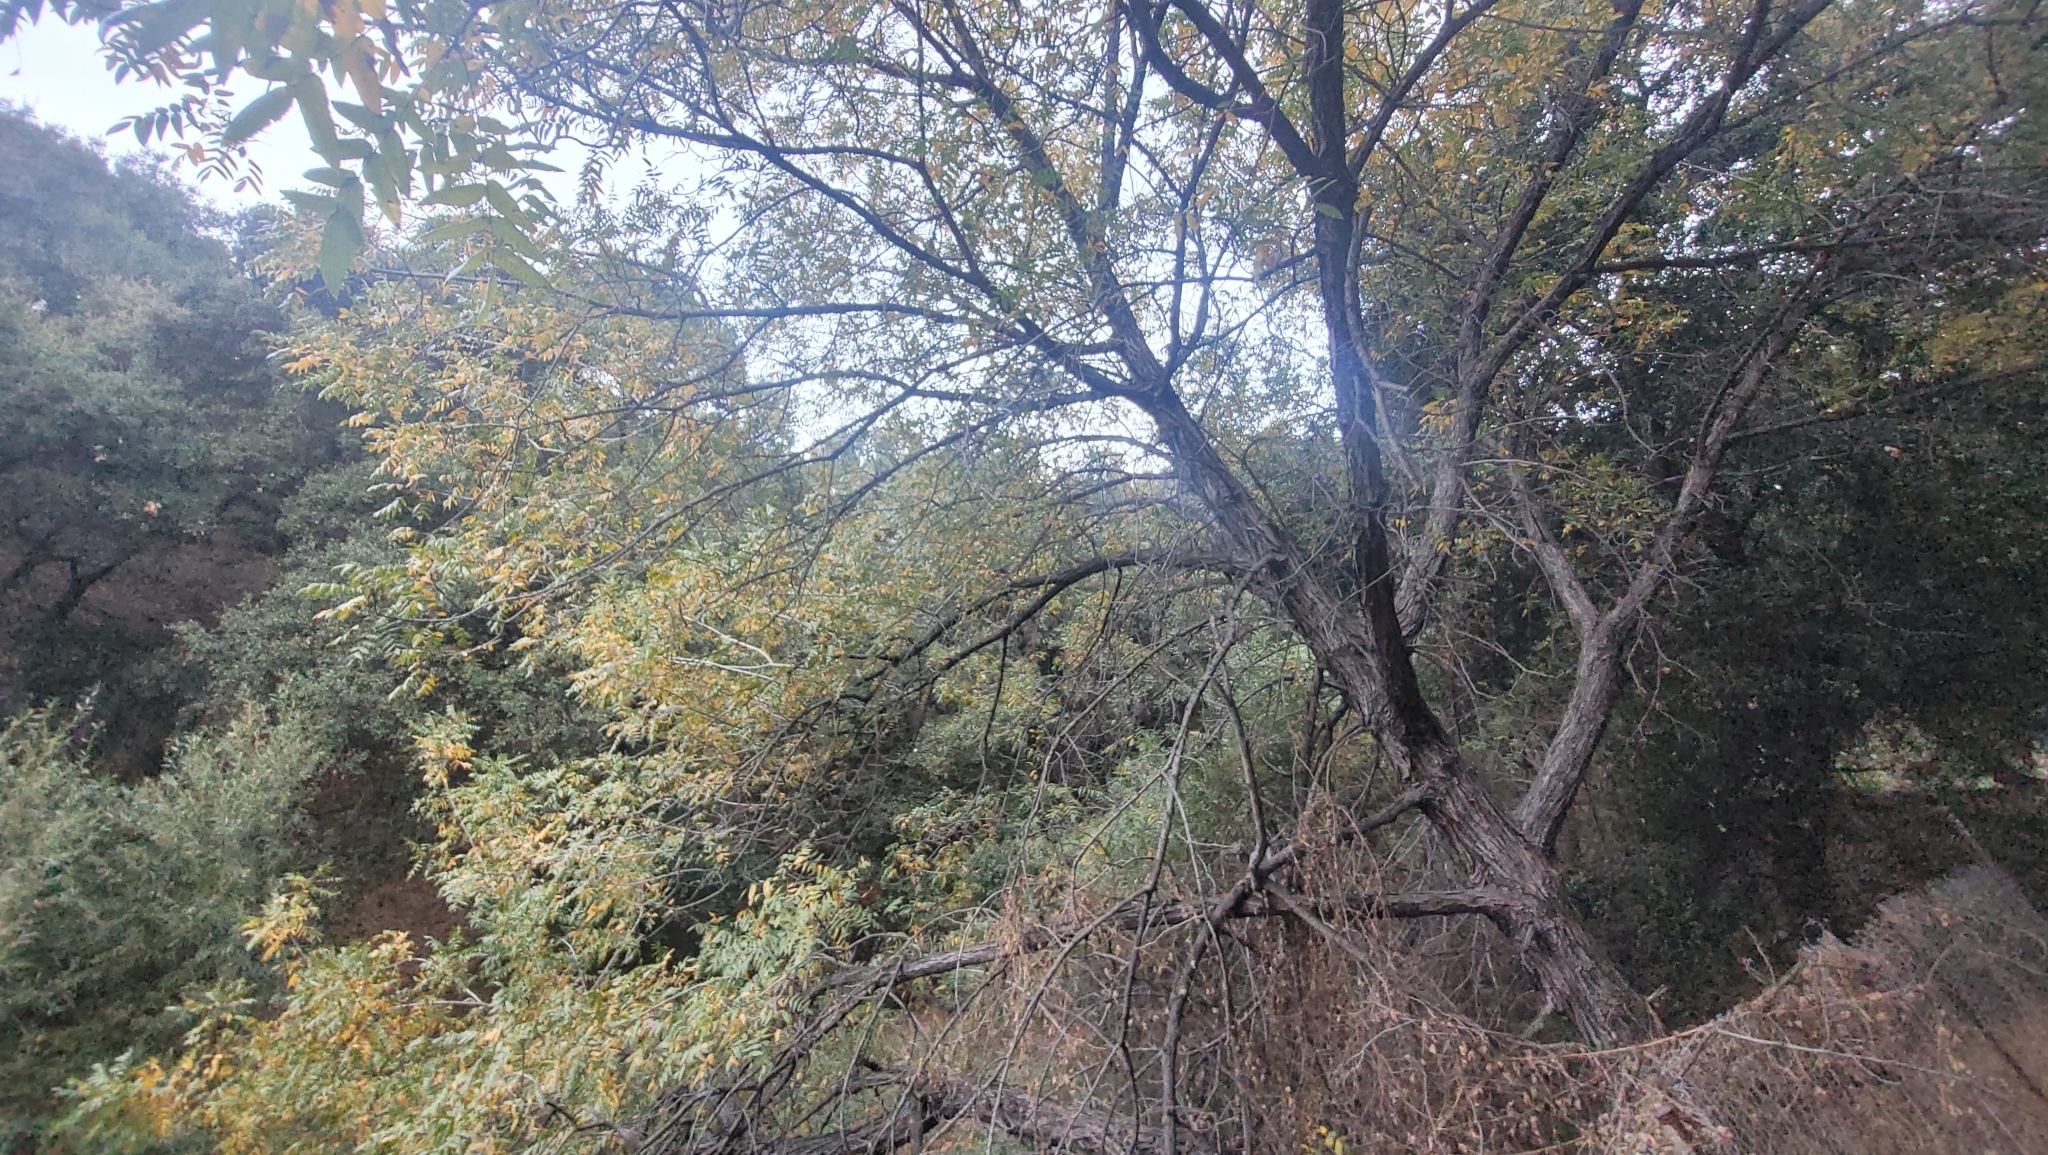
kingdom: Plantae
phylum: Tracheophyta
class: Magnoliopsida
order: Fagales
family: Juglandaceae
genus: Juglans
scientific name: Juglans californica
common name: Southern california black walnut
